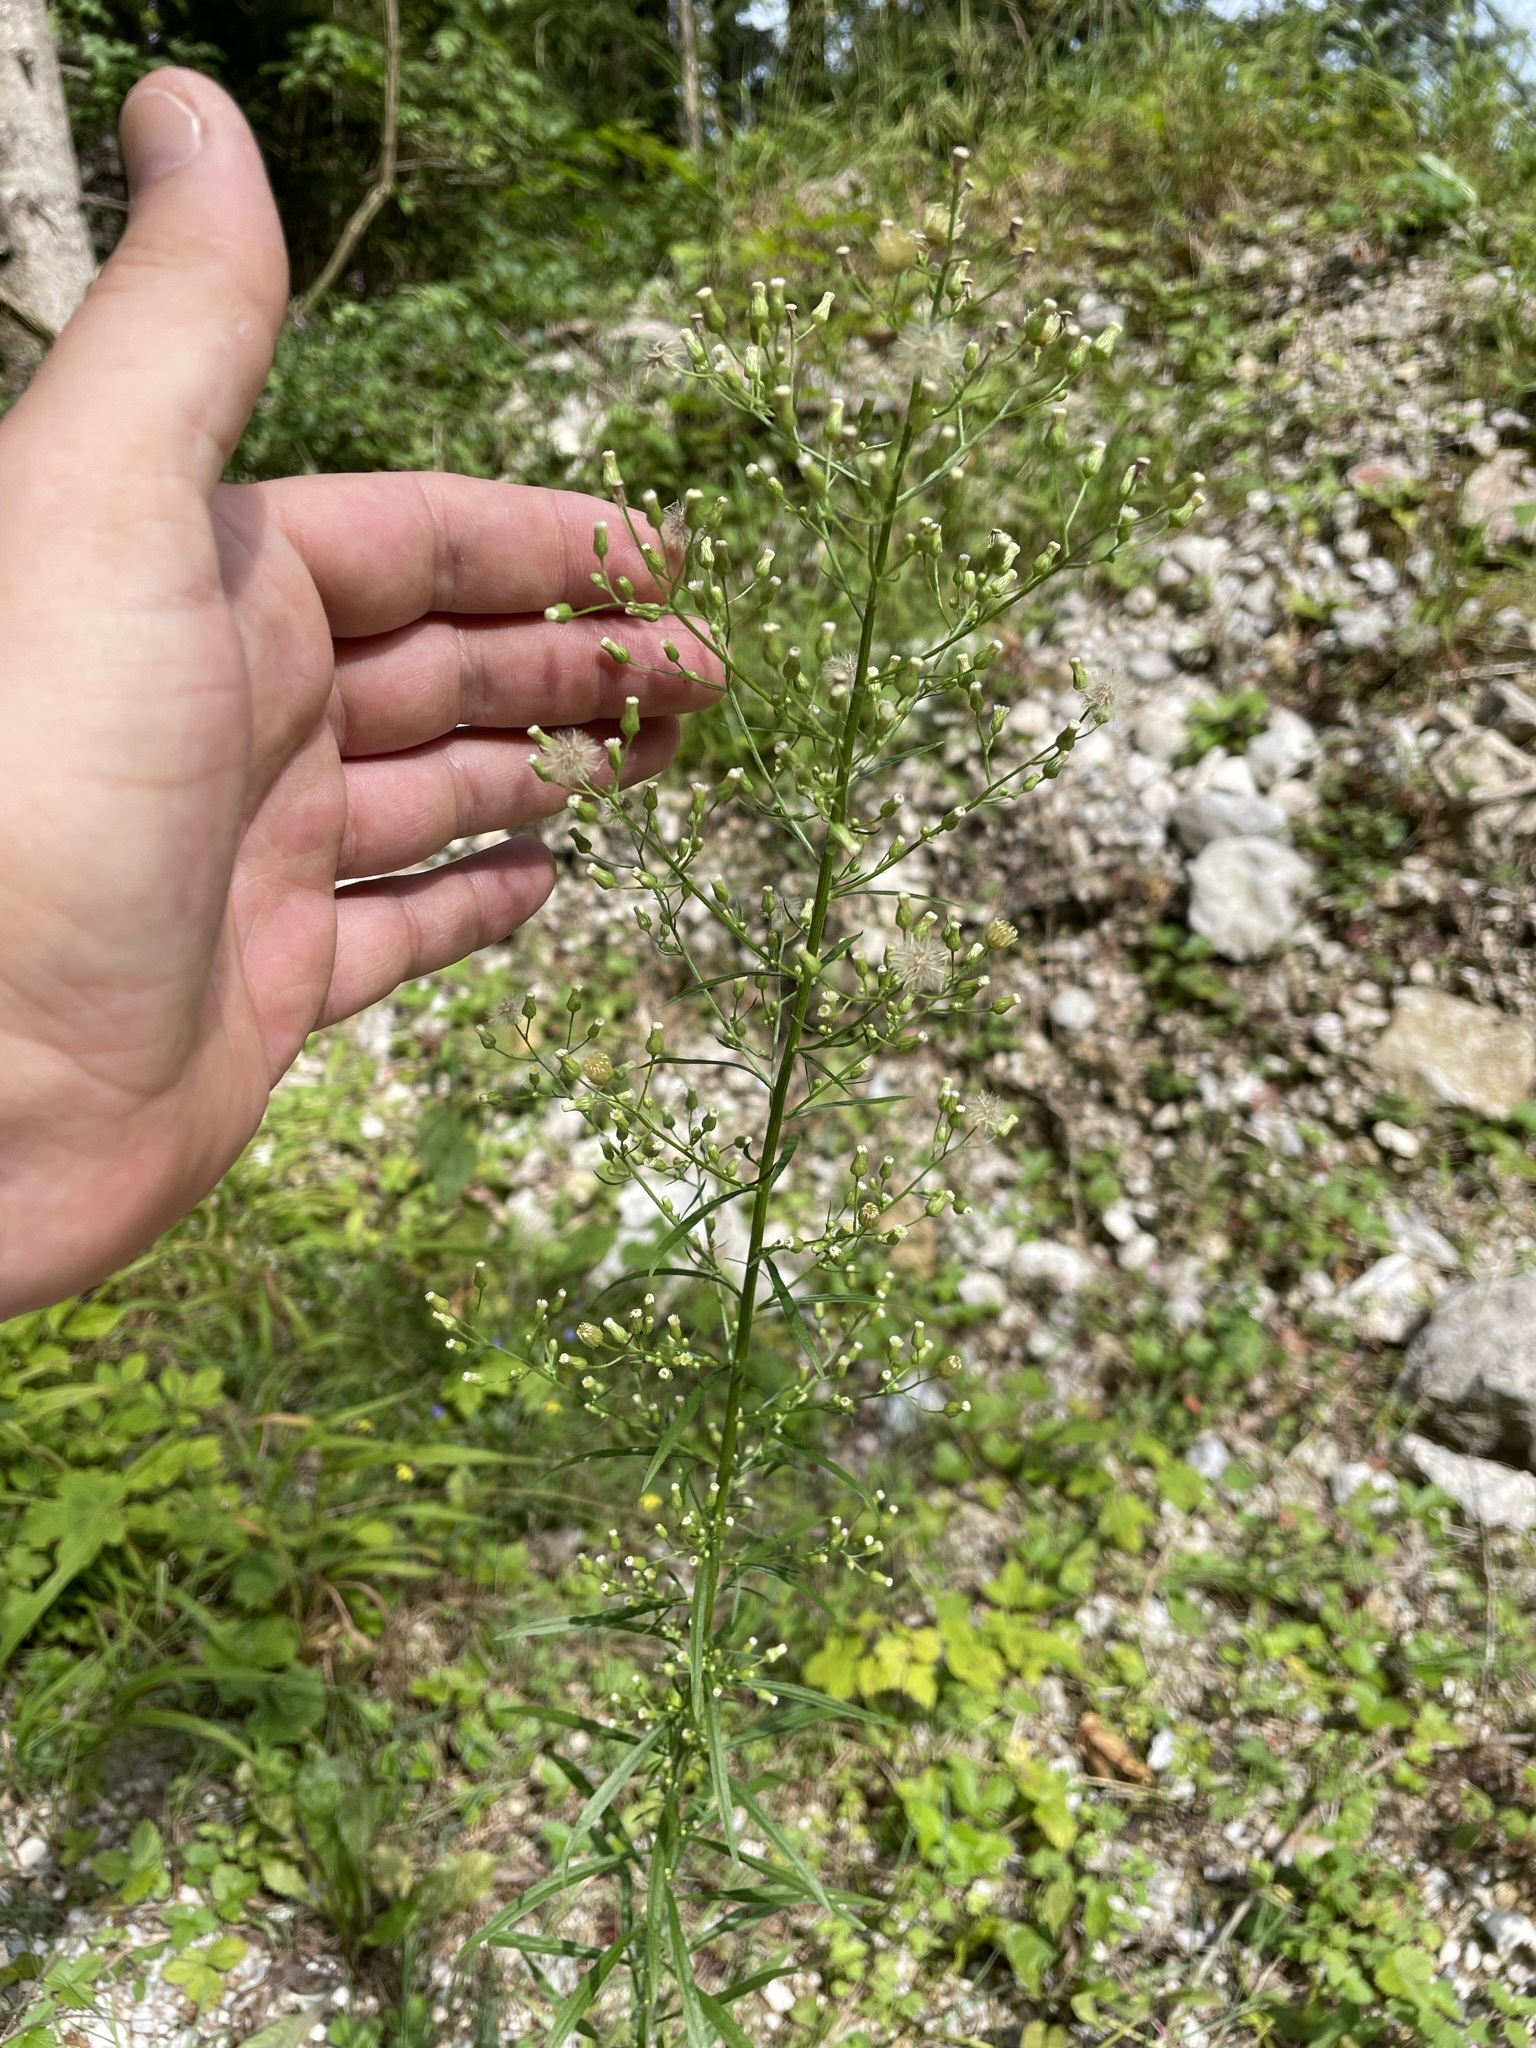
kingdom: Plantae
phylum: Tracheophyta
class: Magnoliopsida
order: Asterales
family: Asteraceae
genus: Erigeron
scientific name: Erigeron canadensis
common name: Canadian fleabane
